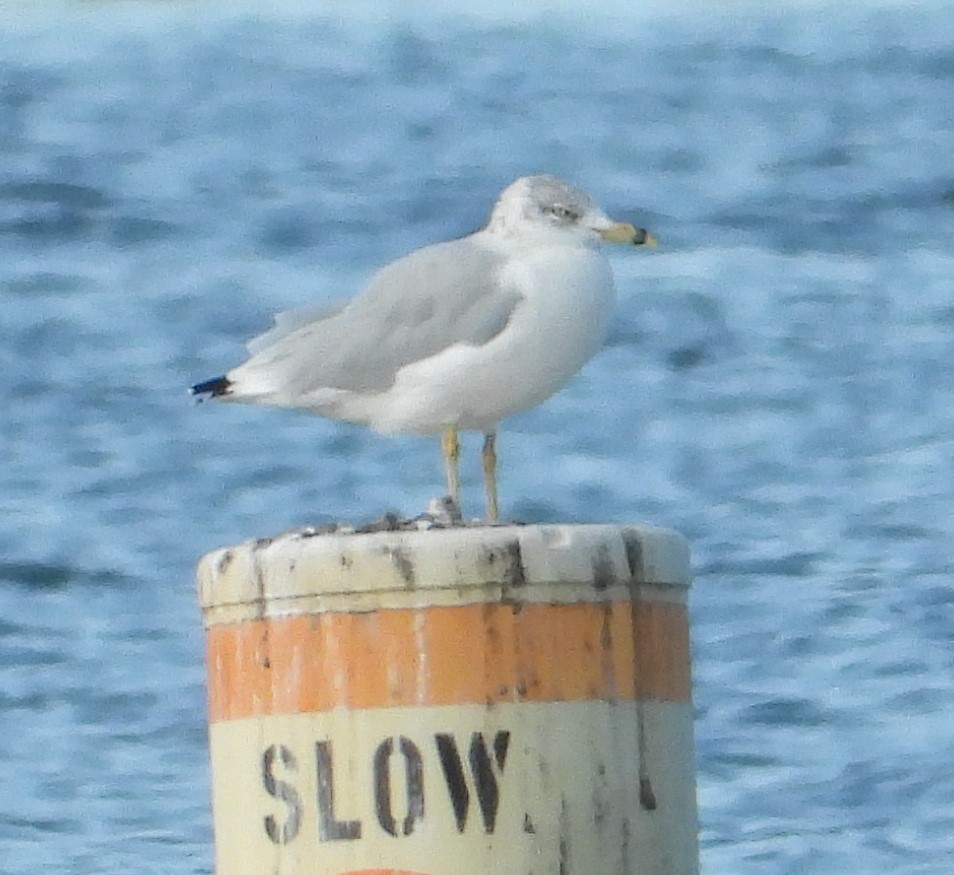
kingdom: Animalia
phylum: Chordata
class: Aves
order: Charadriiformes
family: Laridae
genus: Larus
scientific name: Larus delawarensis
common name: Ring-billed gull
